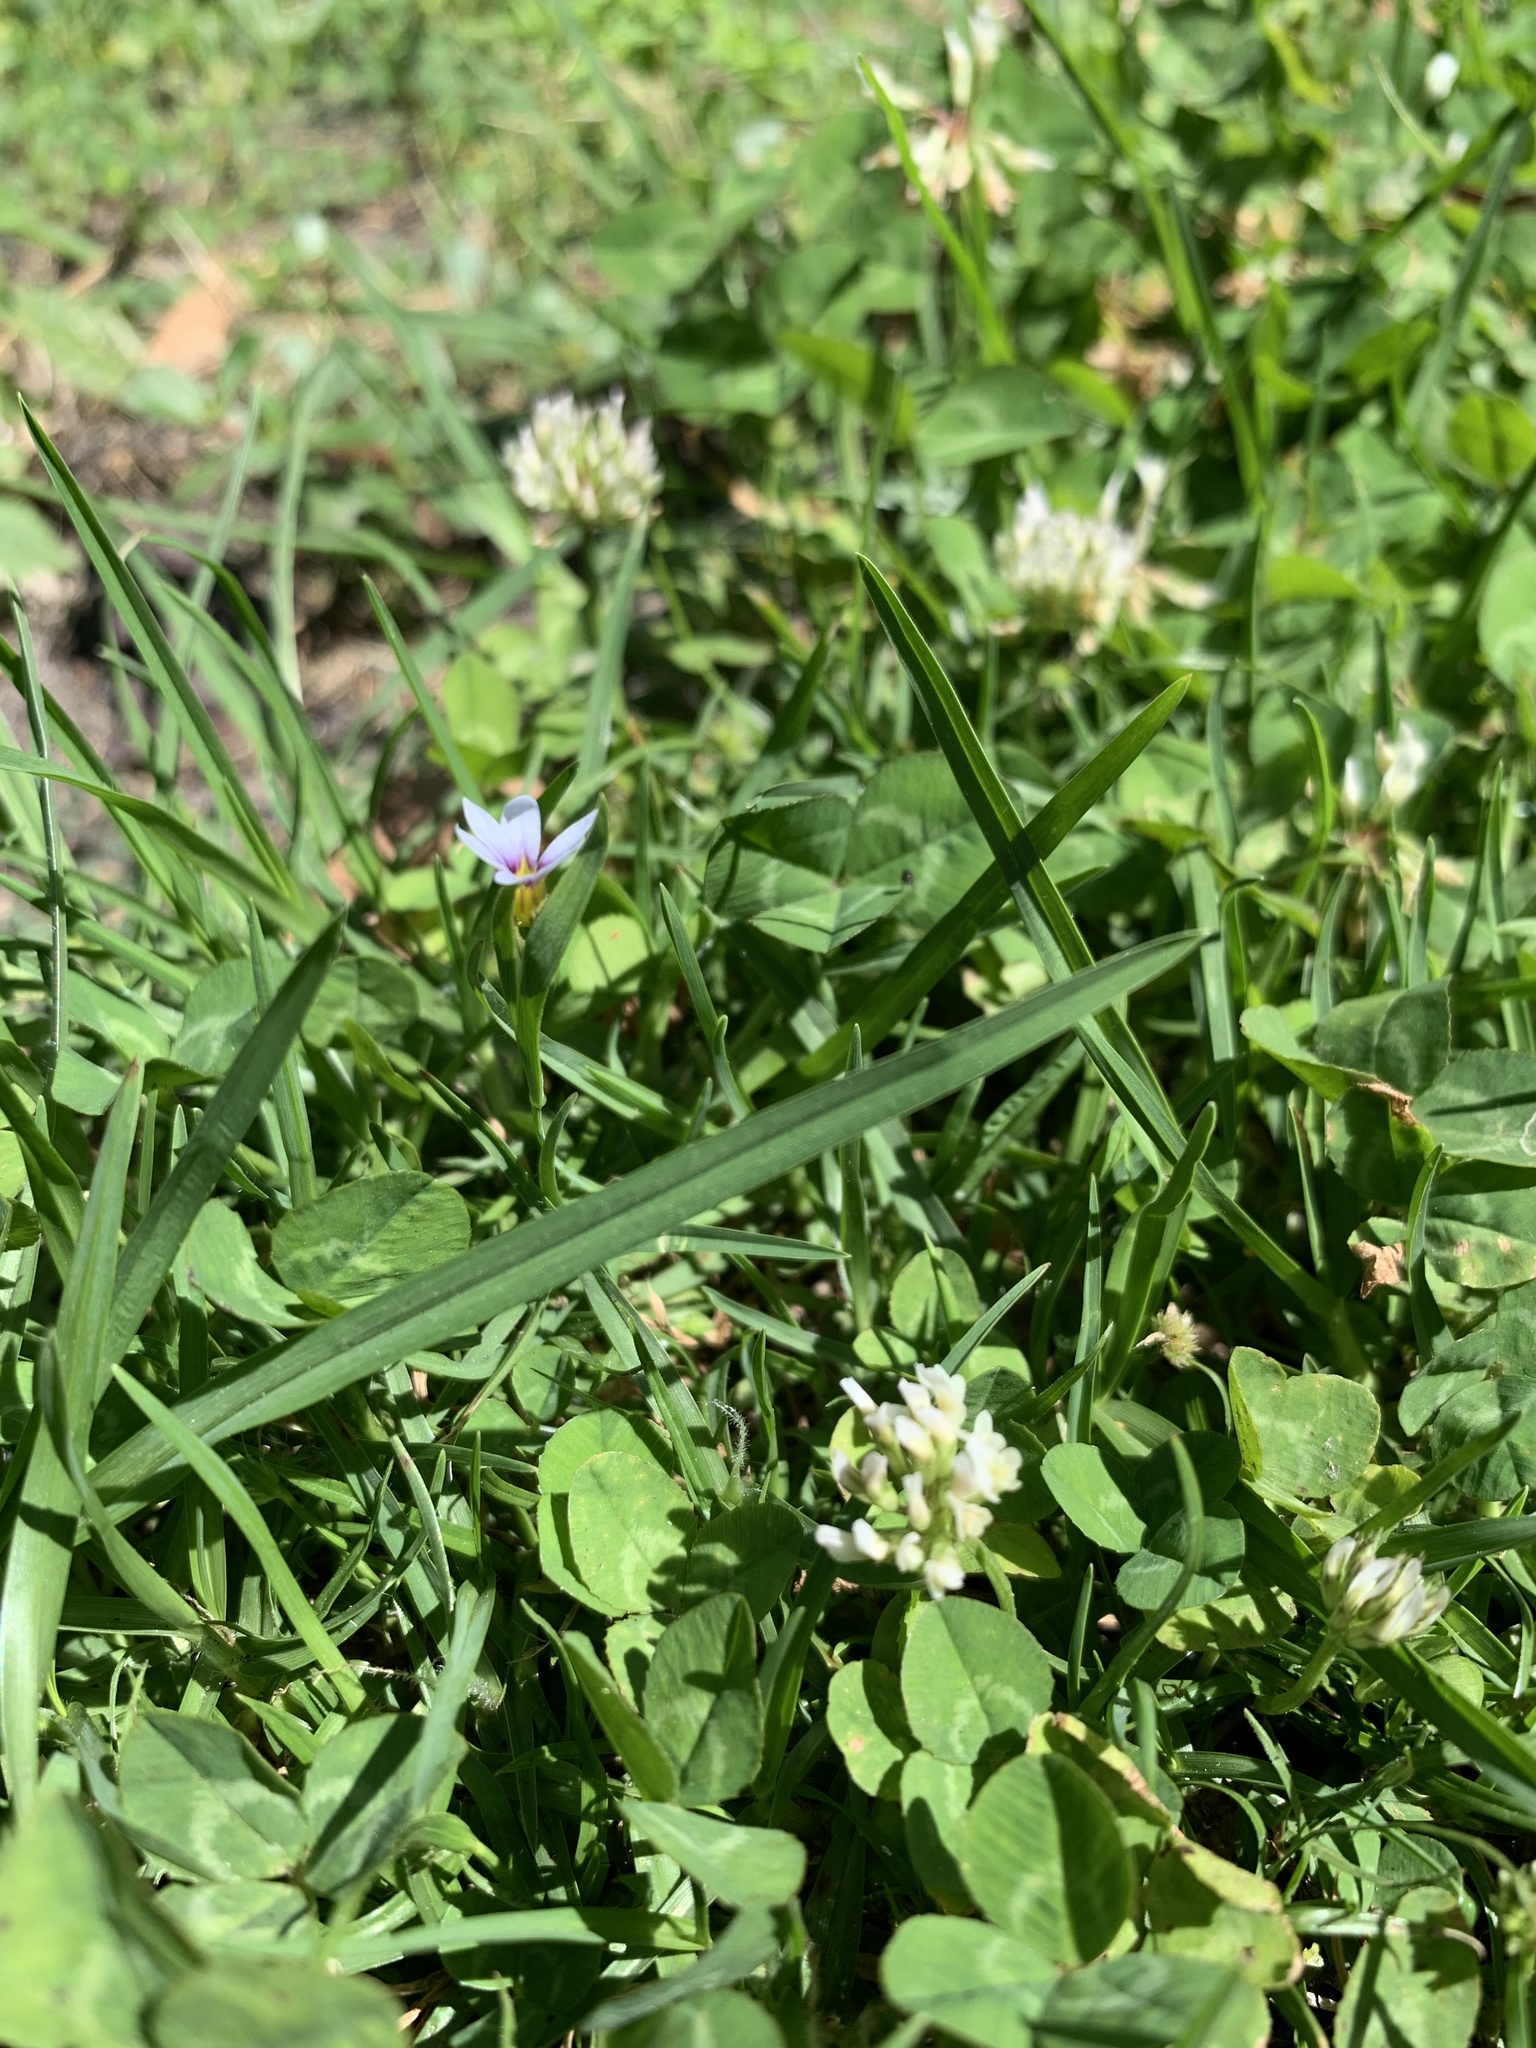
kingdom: Plantae
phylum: Tracheophyta
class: Liliopsida
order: Asparagales
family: Iridaceae
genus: Sisyrinchium
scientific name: Sisyrinchium micranthum
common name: Bermuda pigroot
